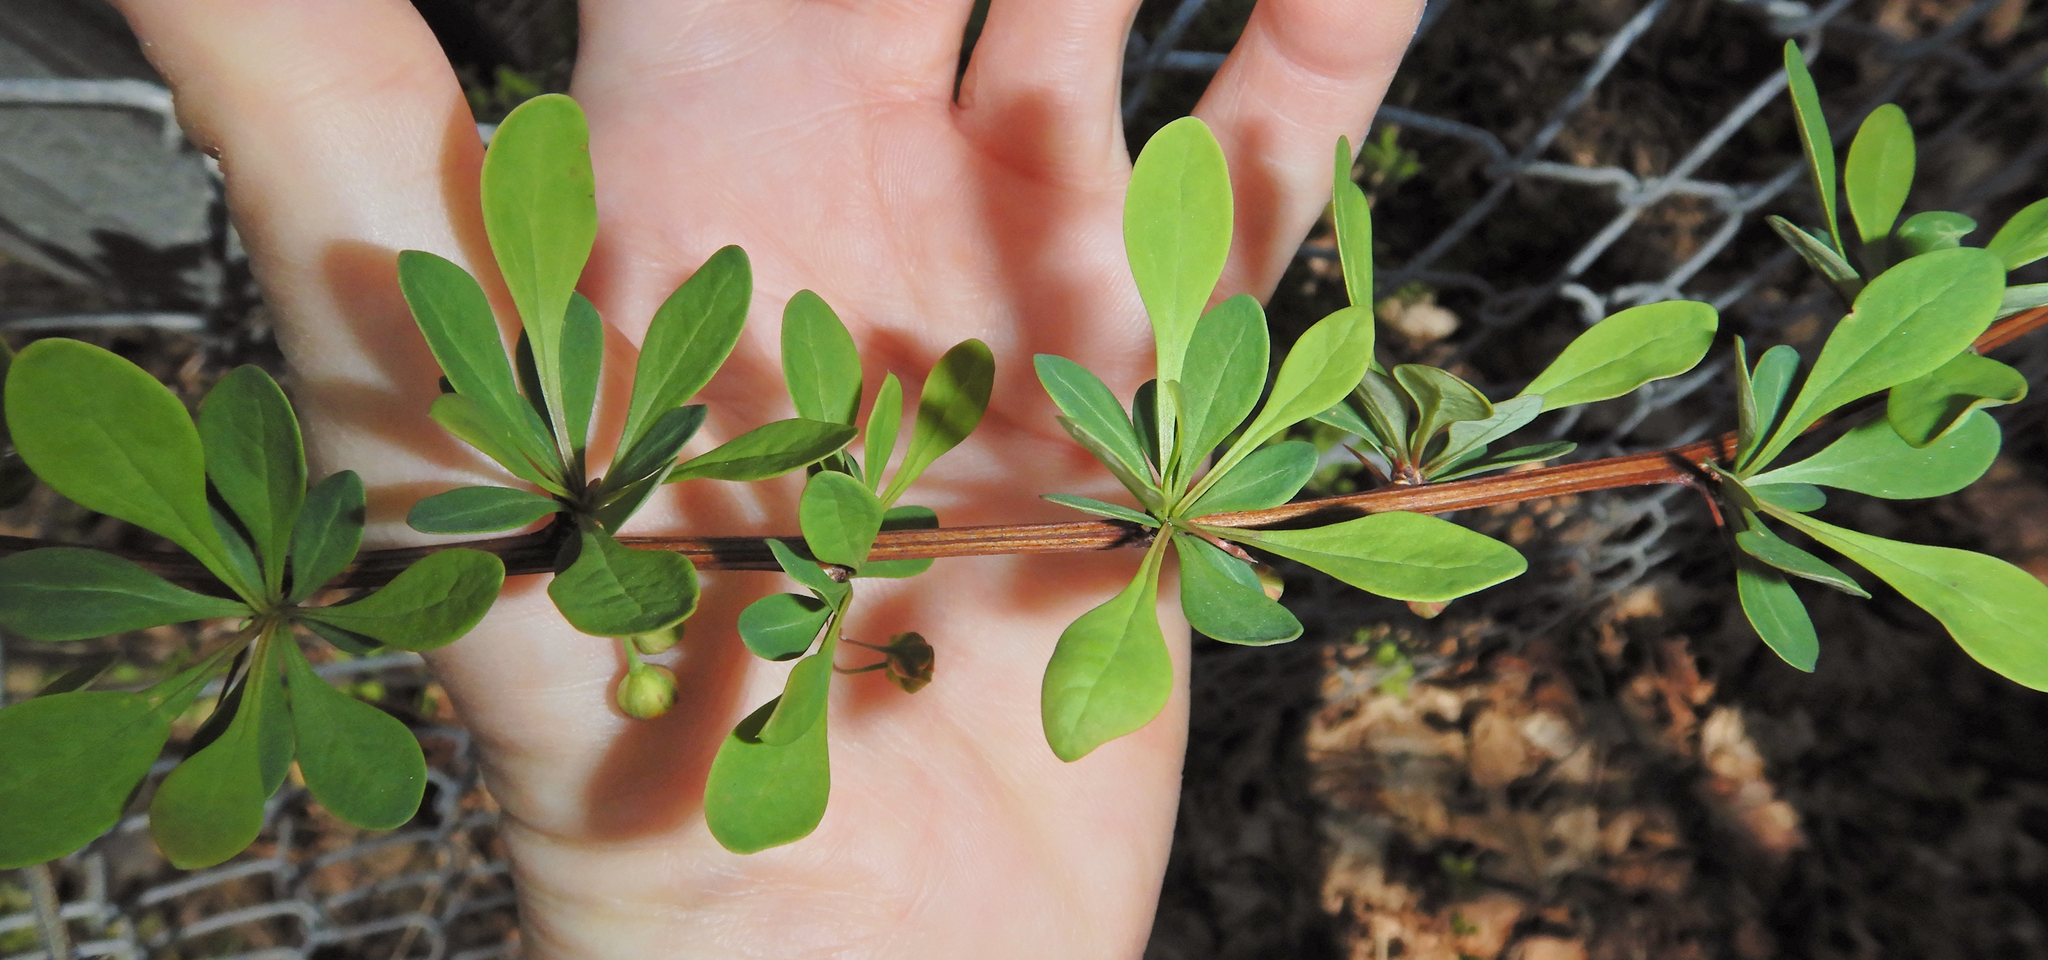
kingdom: Plantae
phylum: Tracheophyta
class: Magnoliopsida
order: Ranunculales
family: Berberidaceae
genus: Berberis
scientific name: Berberis thunbergii
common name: Japanese barberry
